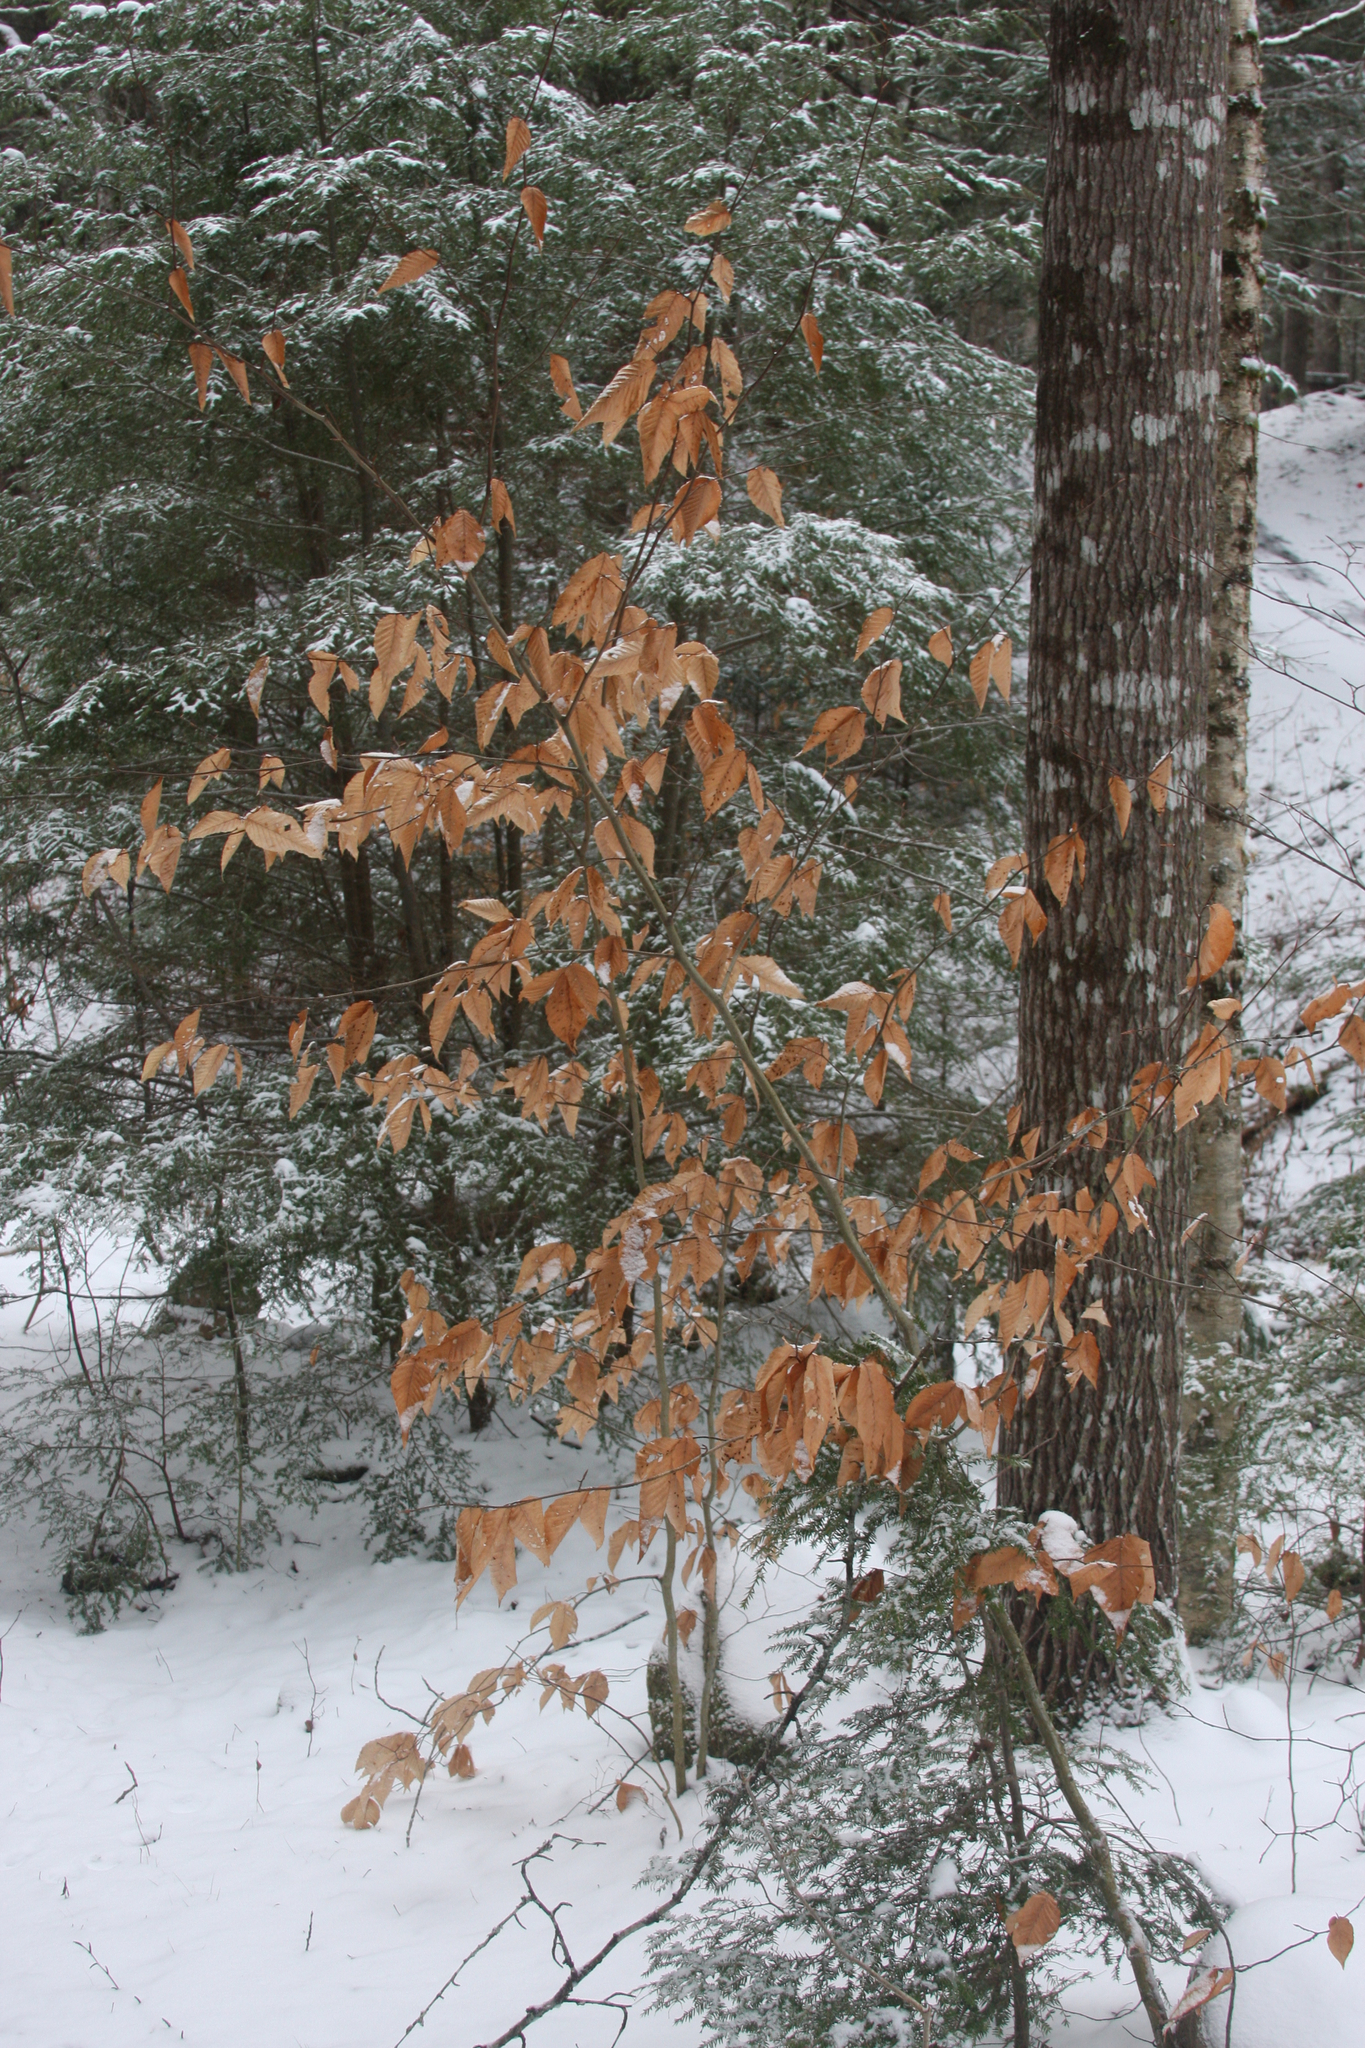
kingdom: Plantae
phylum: Tracheophyta
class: Magnoliopsida
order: Fagales
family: Fagaceae
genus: Fagus
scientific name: Fagus grandifolia
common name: American beech
